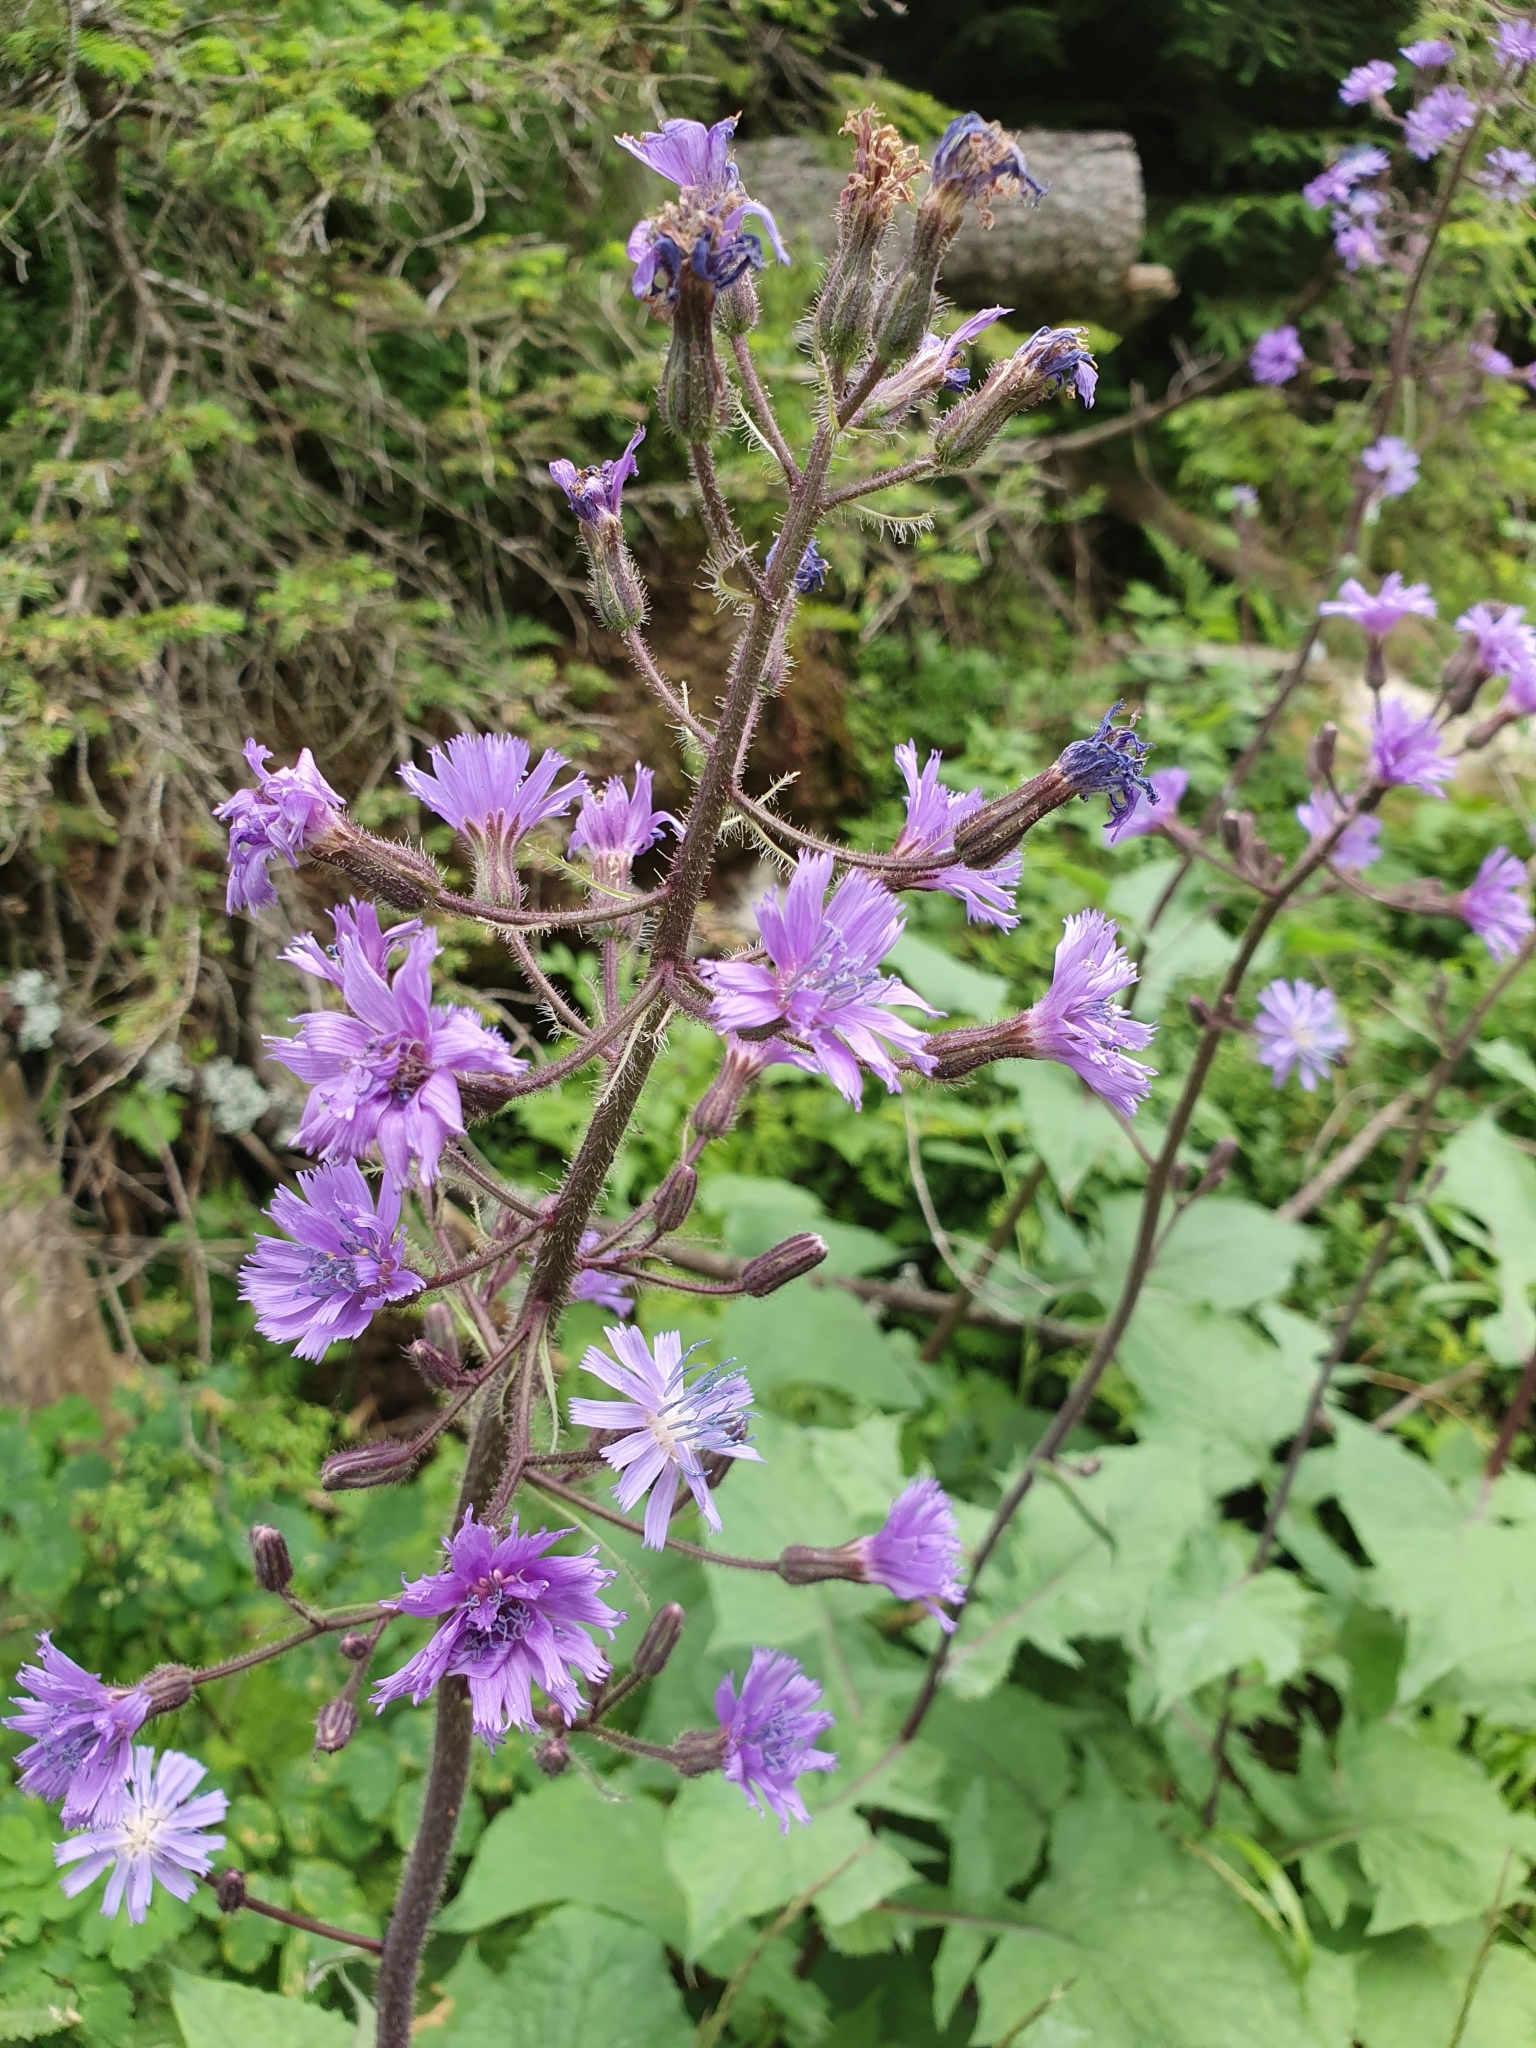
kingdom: Plantae
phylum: Tracheophyta
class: Magnoliopsida
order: Asterales
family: Asteraceae
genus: Cicerbita
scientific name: Cicerbita alpina
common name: Alpine blue-sow-thistle
